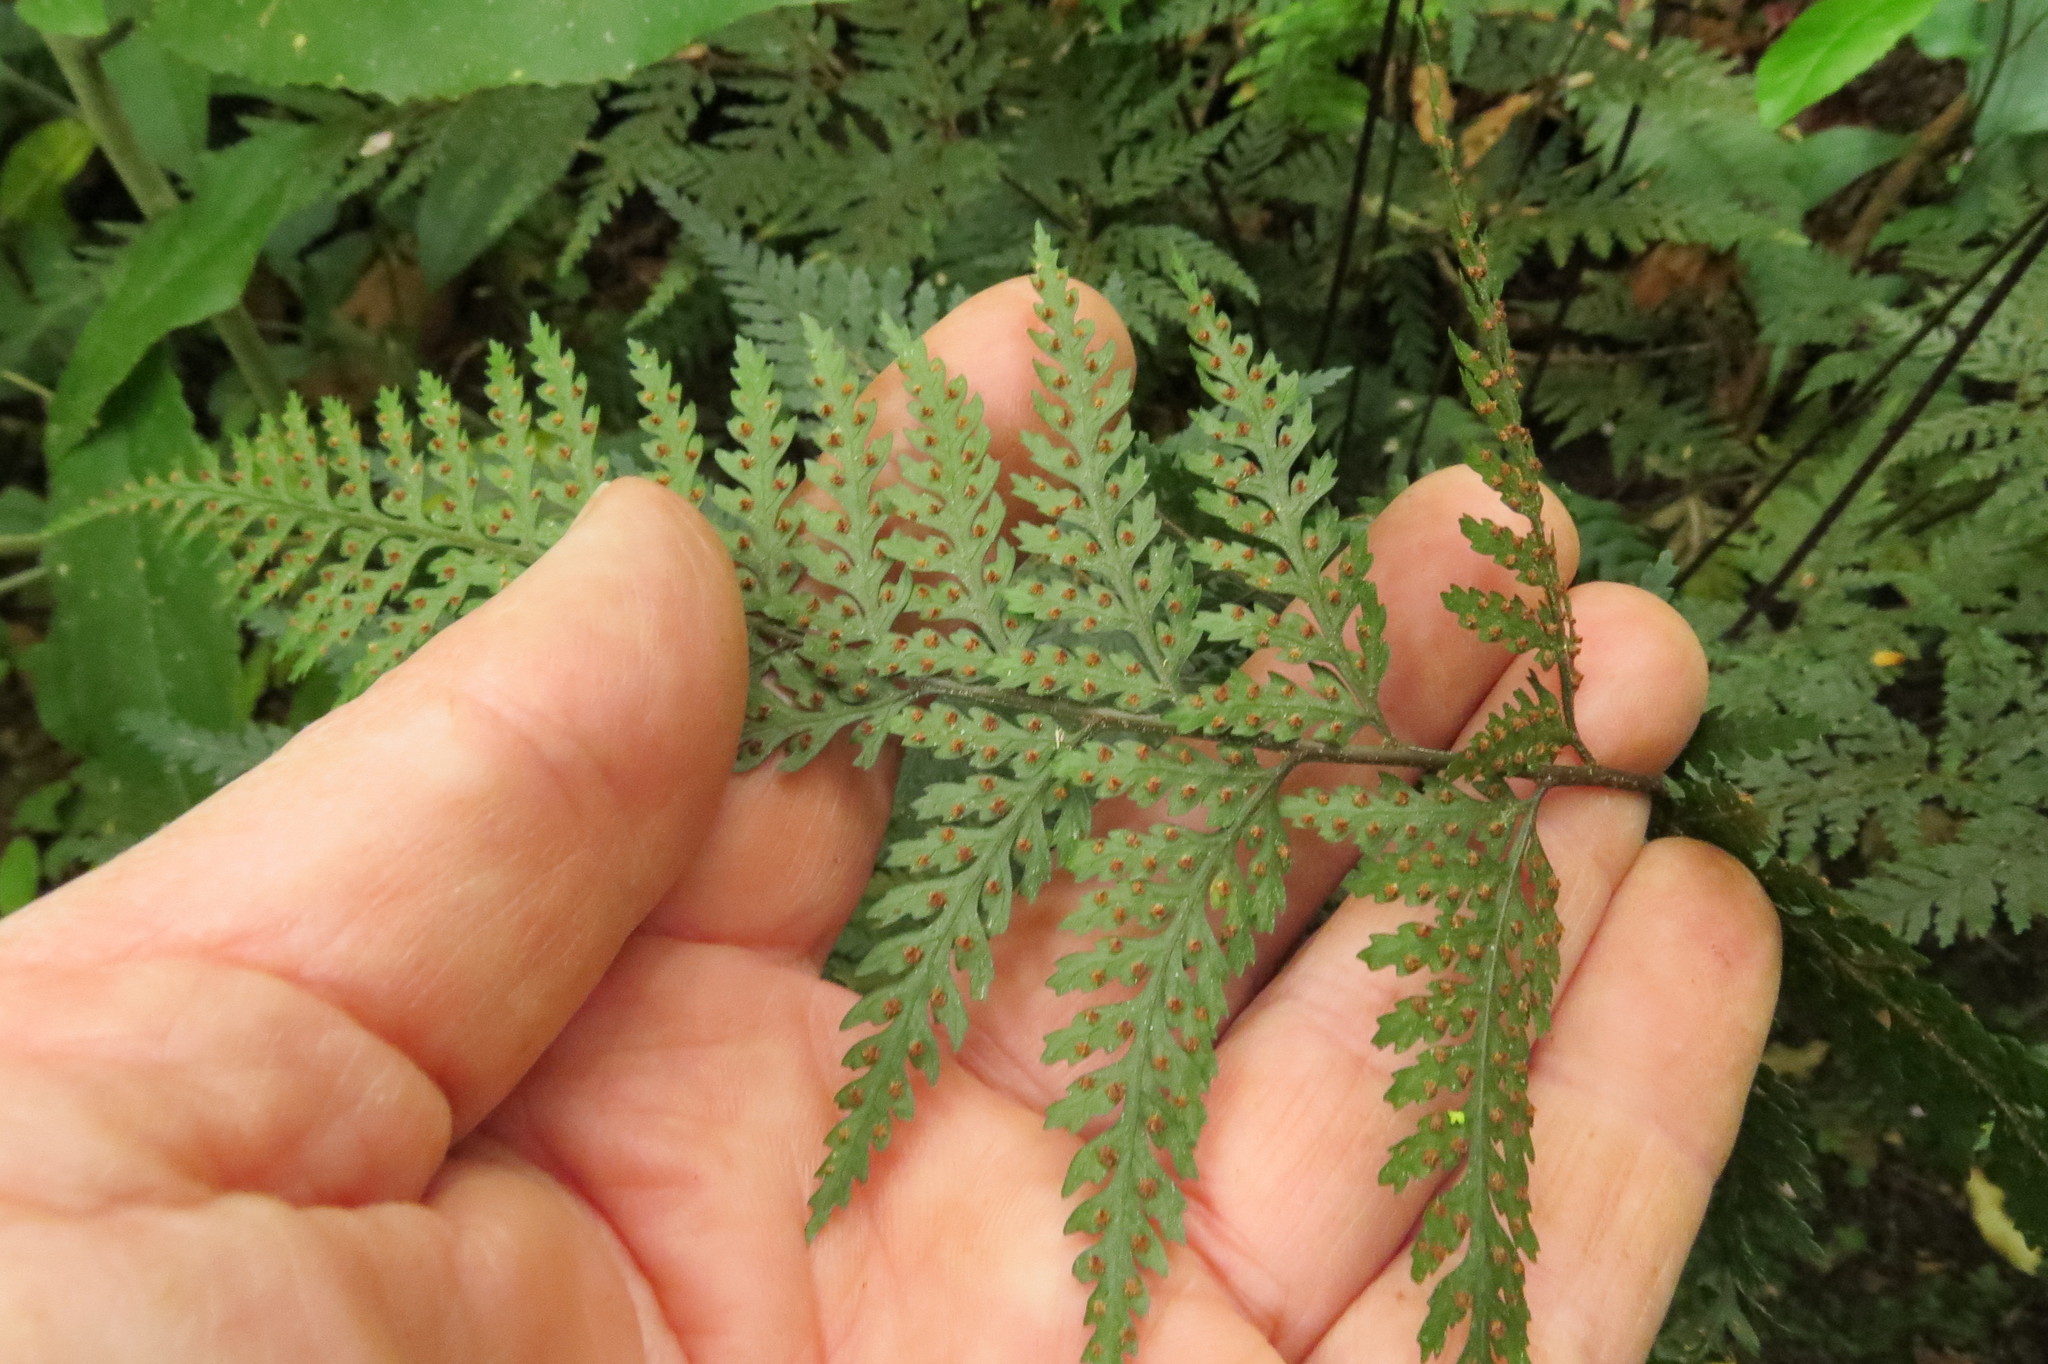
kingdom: Plantae
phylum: Tracheophyta
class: Polypodiopsida
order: Polypodiales
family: Dryopteridaceae
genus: Parapolystichum
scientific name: Parapolystichum glabellum
